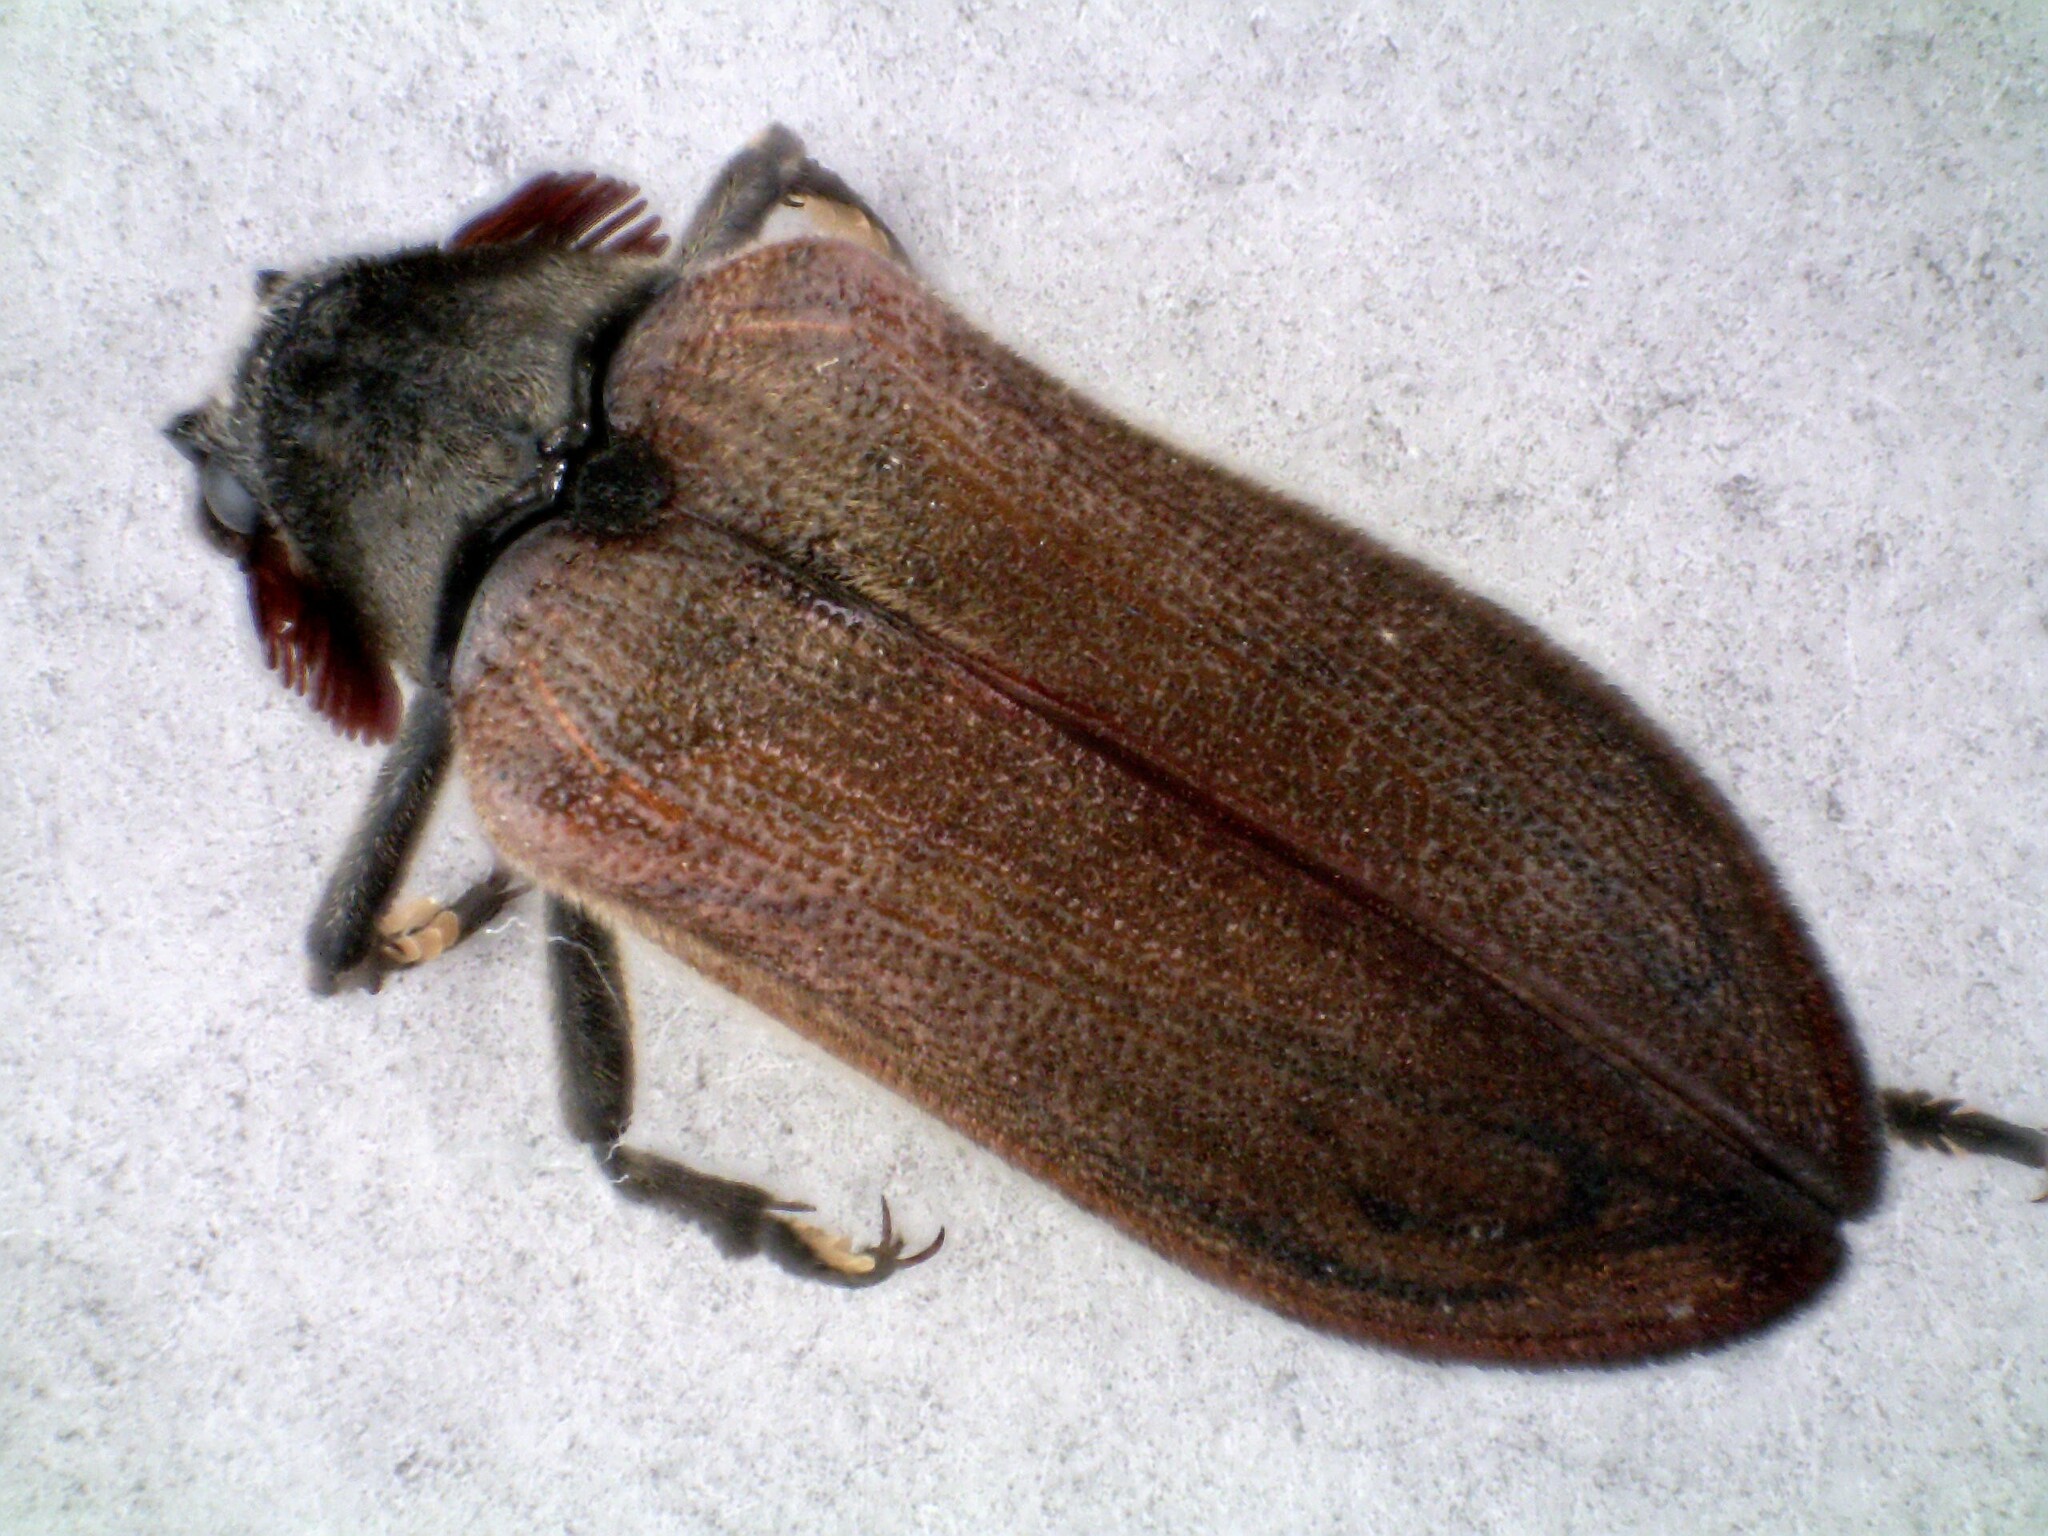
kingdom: Animalia
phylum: Arthropoda
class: Insecta
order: Coleoptera
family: Rhipiceridae
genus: Sandalus
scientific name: Sandalus niger
